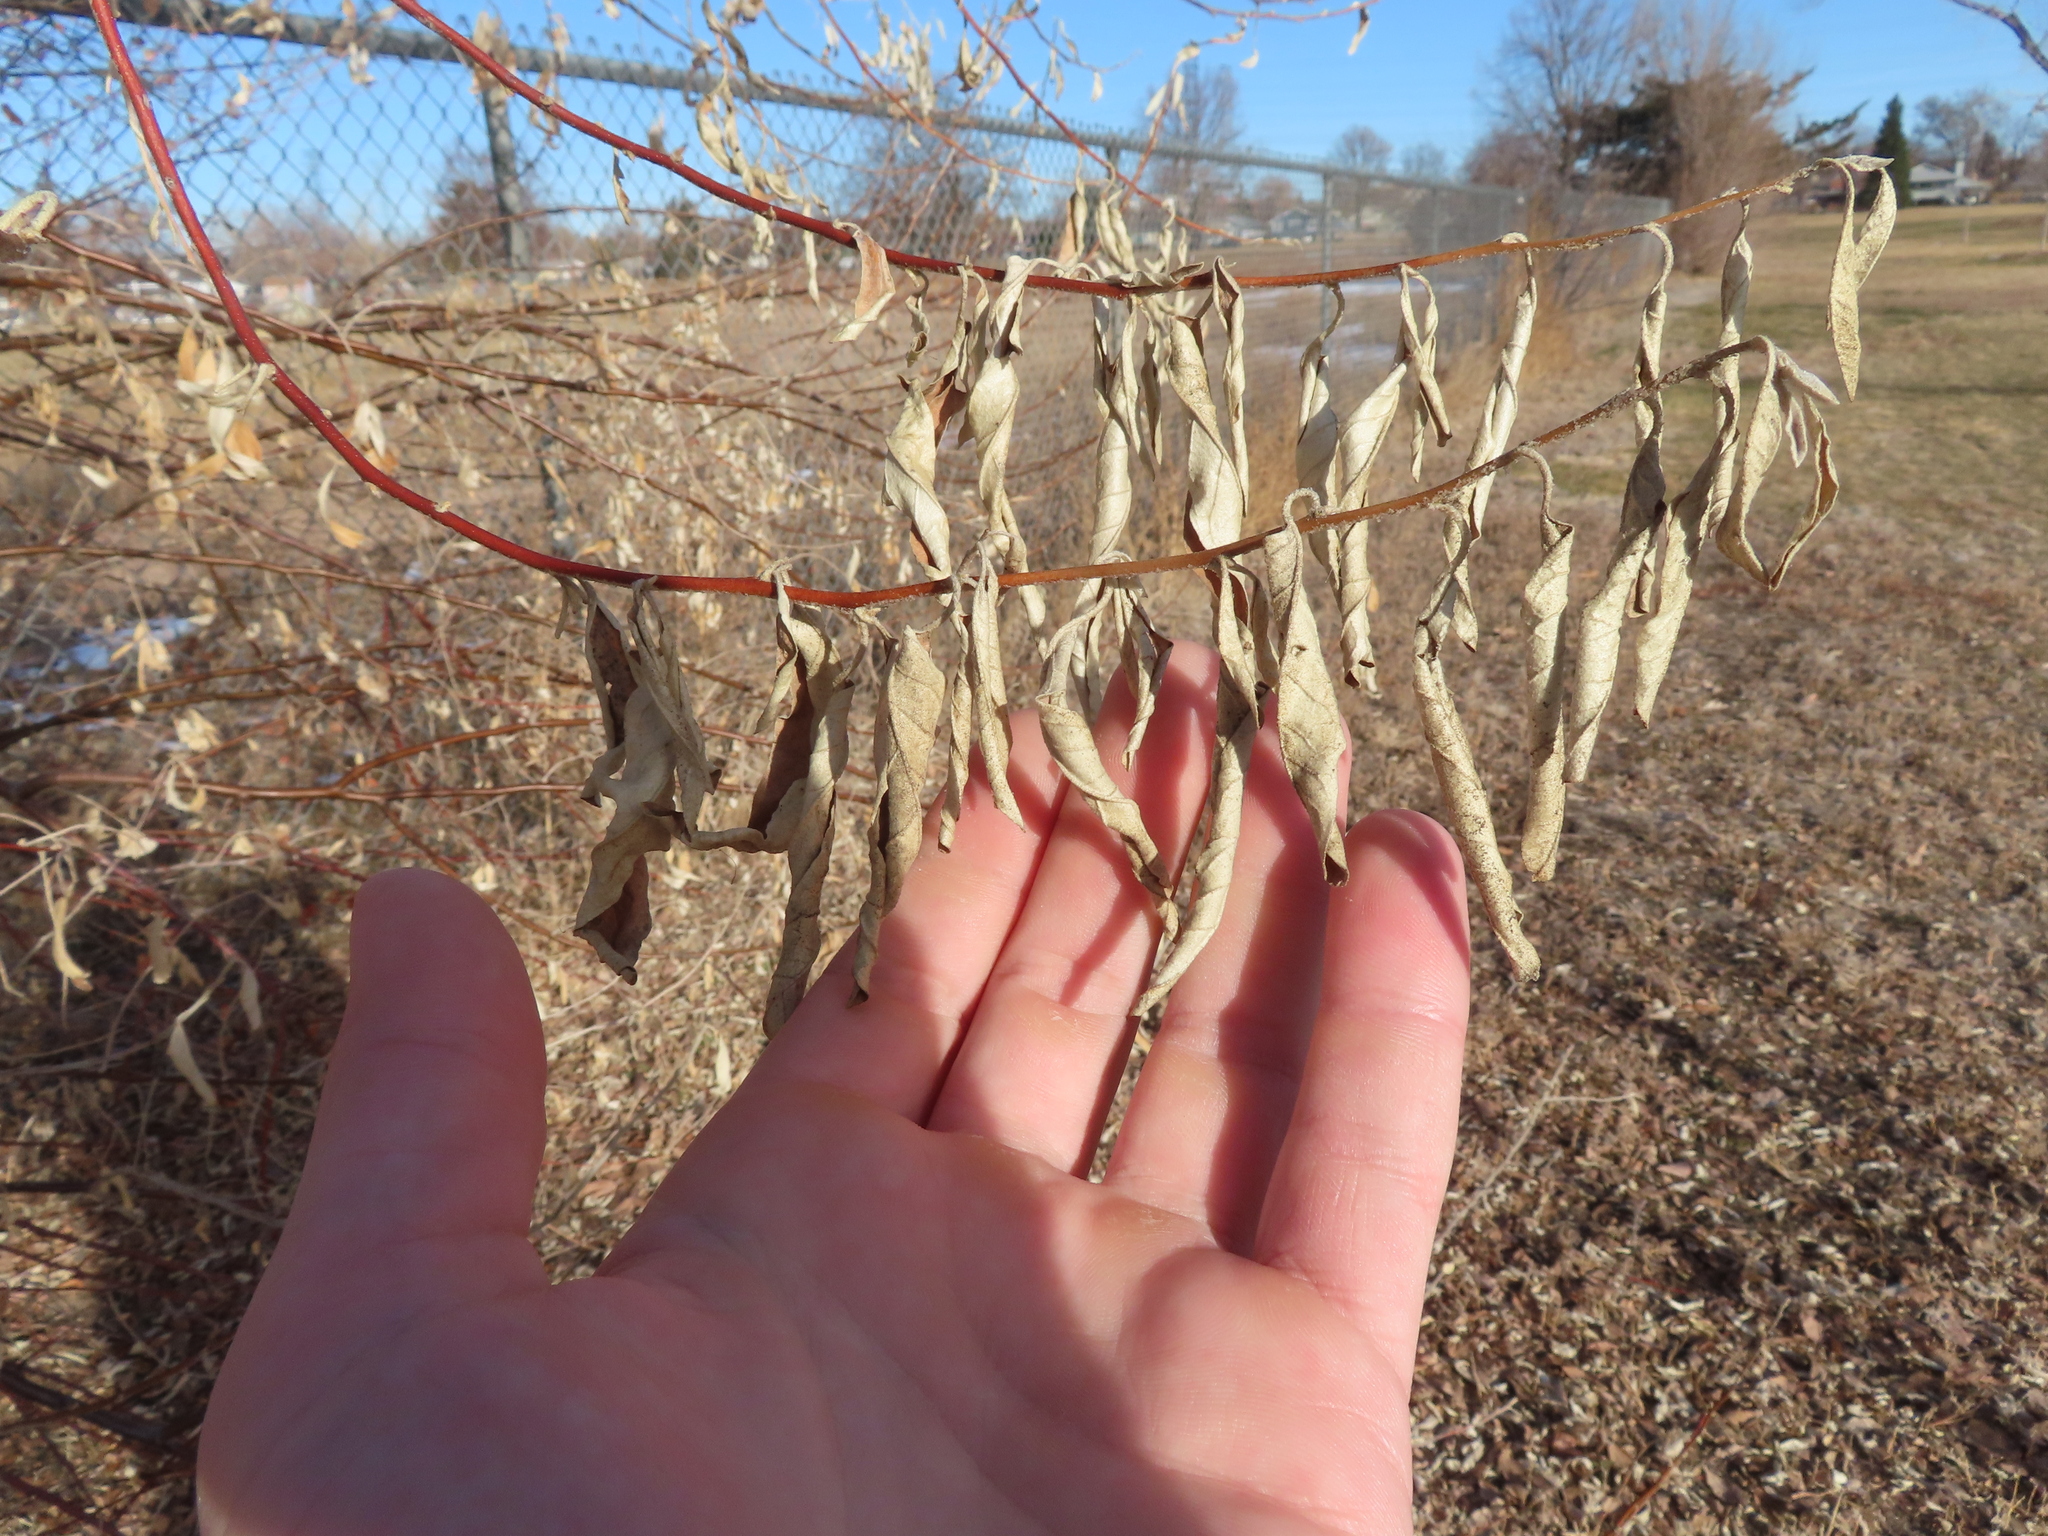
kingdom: Plantae
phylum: Tracheophyta
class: Magnoliopsida
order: Rosales
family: Elaeagnaceae
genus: Elaeagnus
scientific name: Elaeagnus angustifolia
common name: Russian olive
